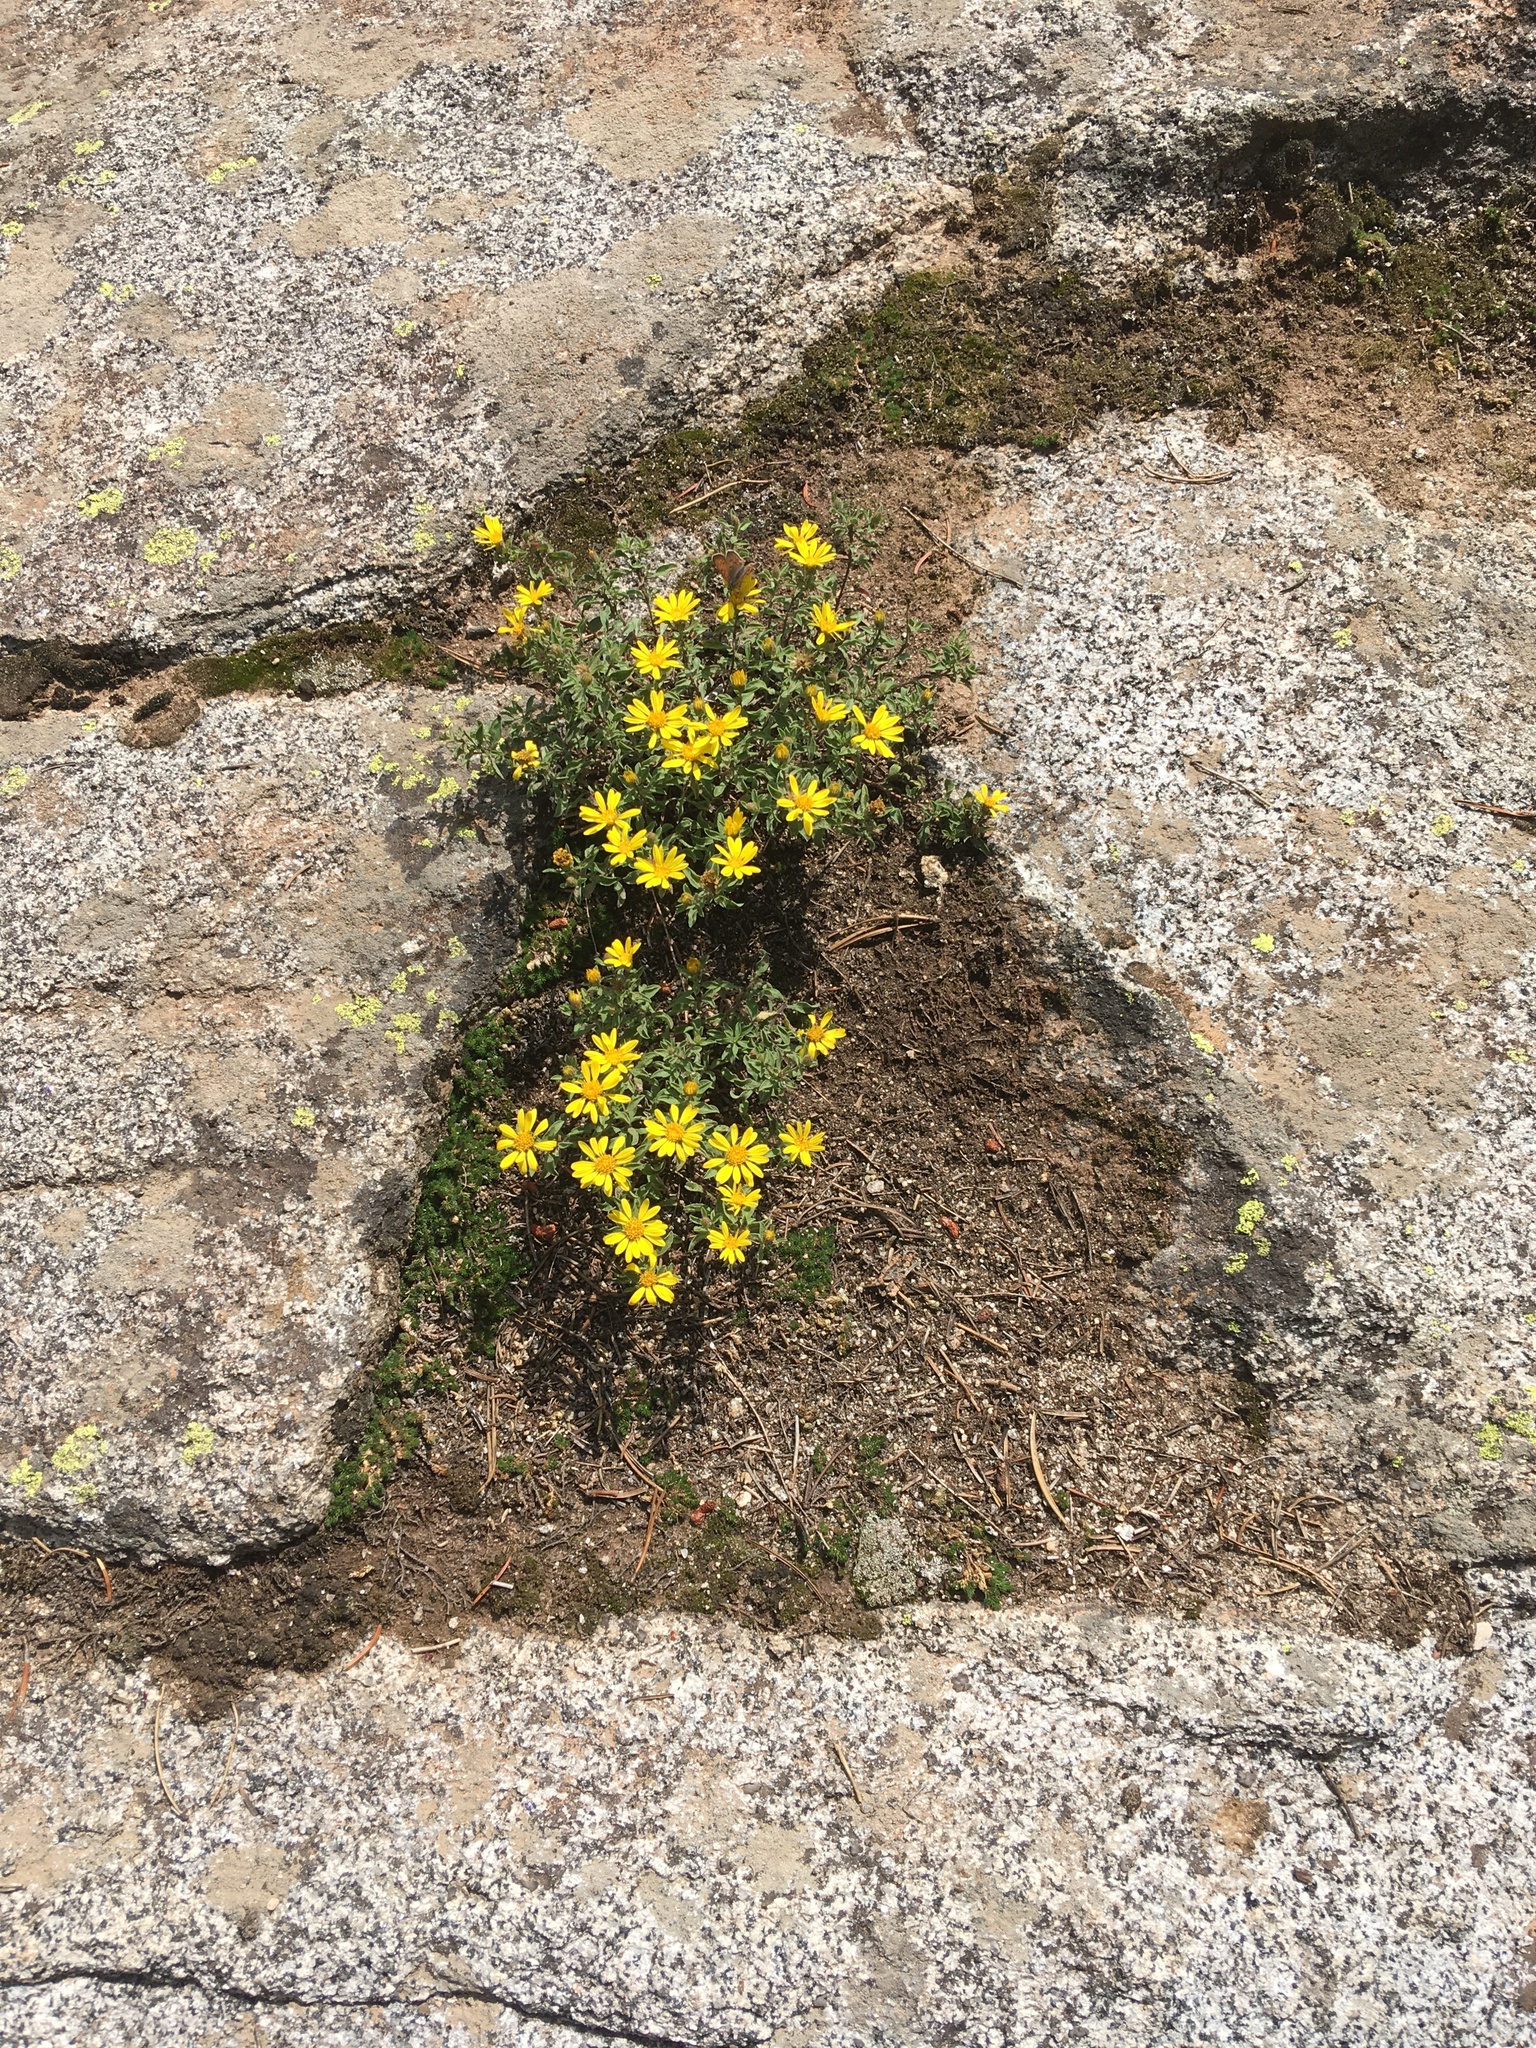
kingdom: Plantae
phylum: Tracheophyta
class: Magnoliopsida
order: Asterales
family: Asteraceae
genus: Heterotheca
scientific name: Heterotheca villosa
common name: Hairy false goldenaster
